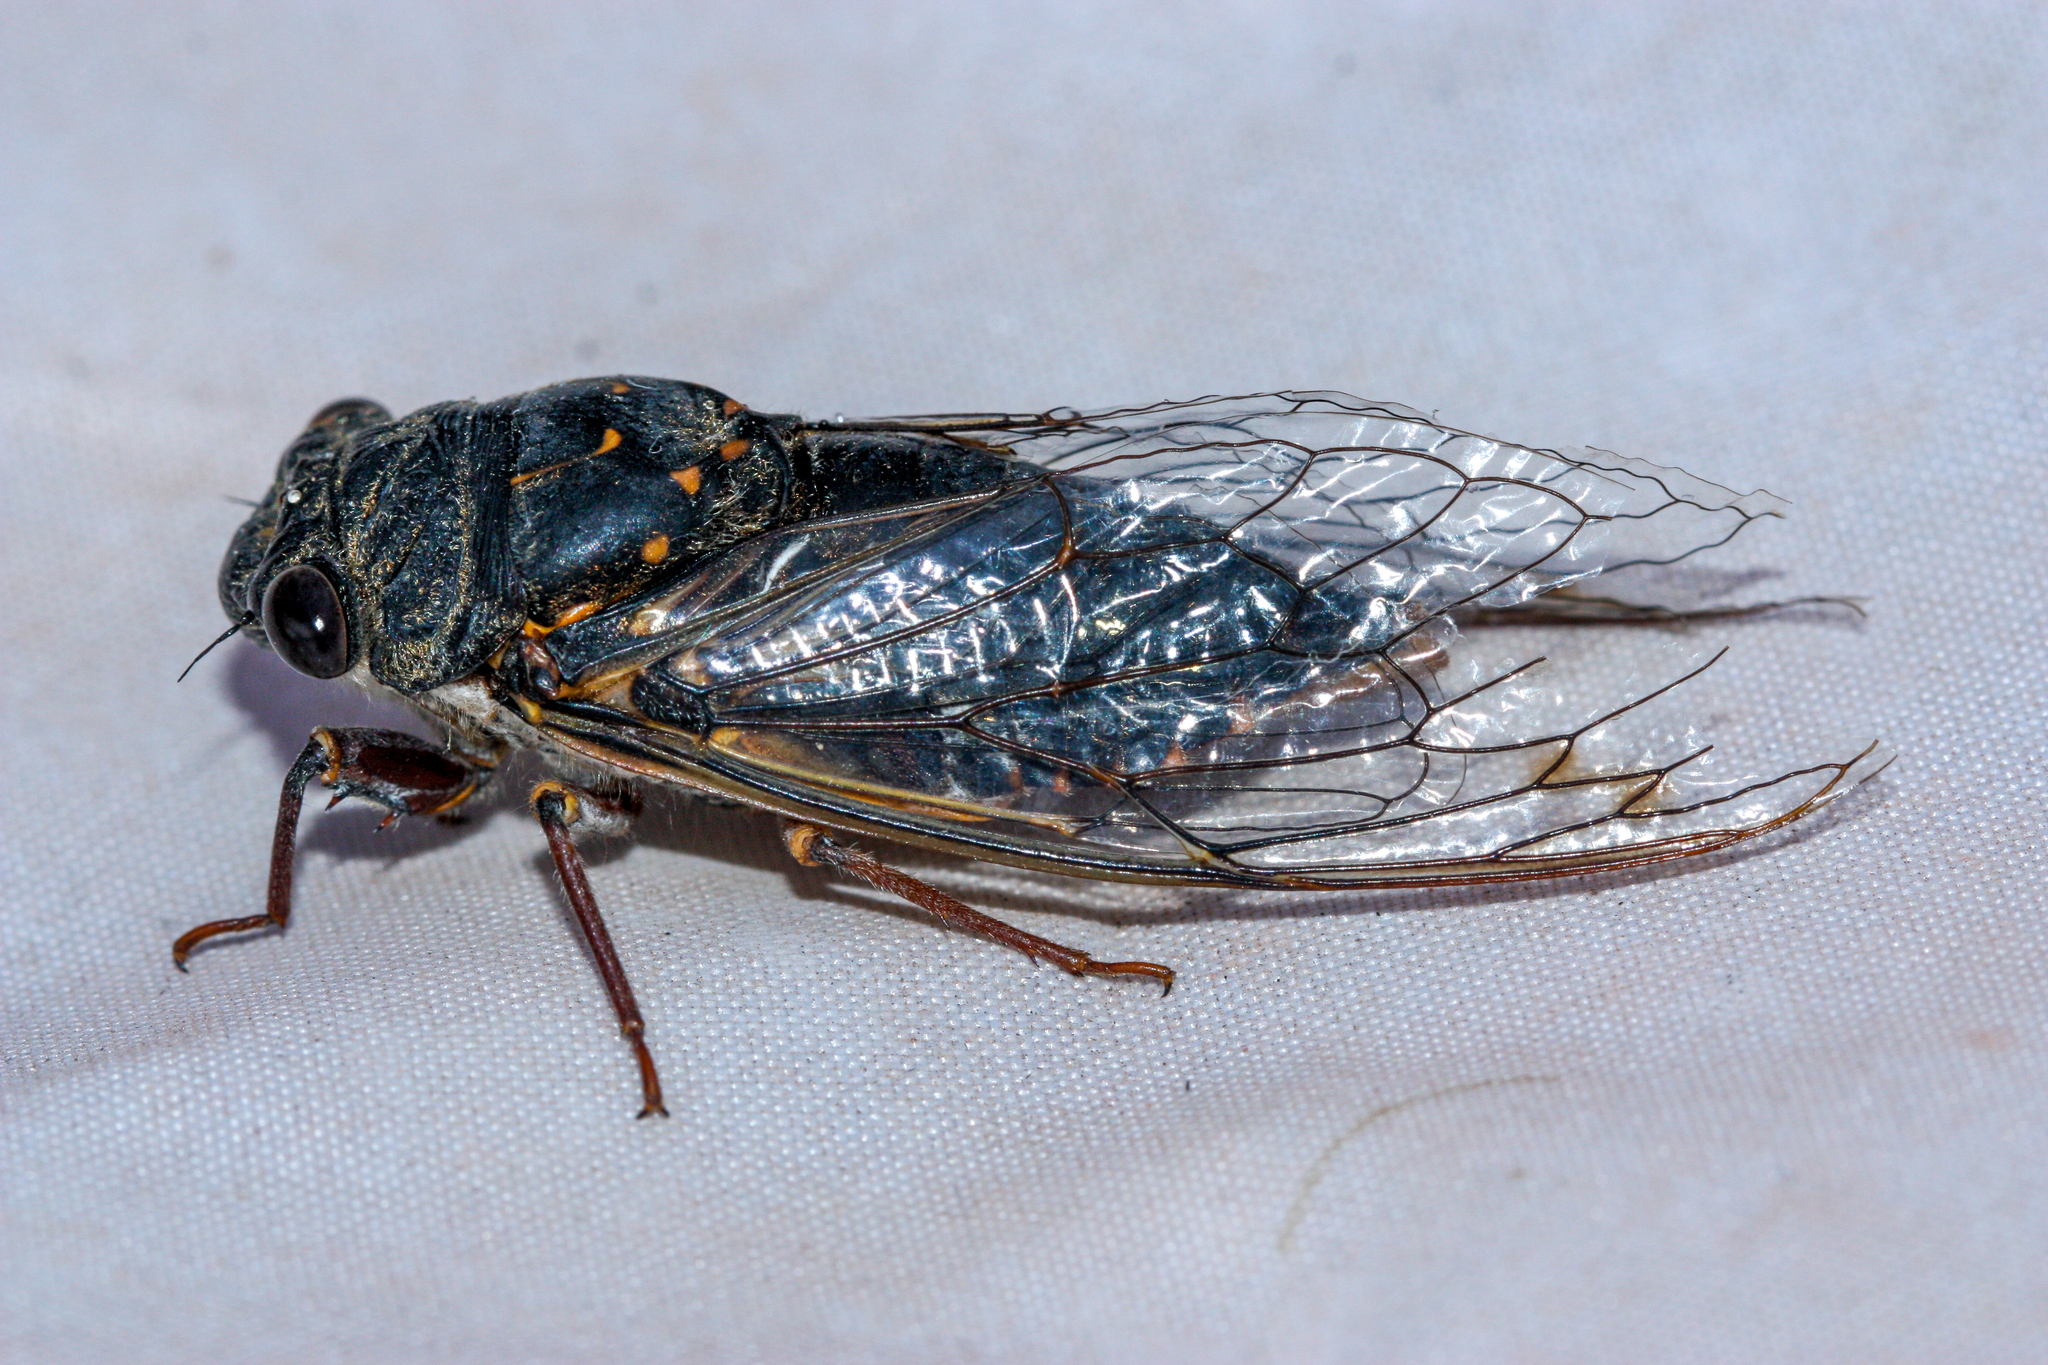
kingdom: Animalia
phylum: Arthropoda
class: Insecta
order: Hemiptera
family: Cicadidae
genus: Hadoa
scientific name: Hadoa parallela
